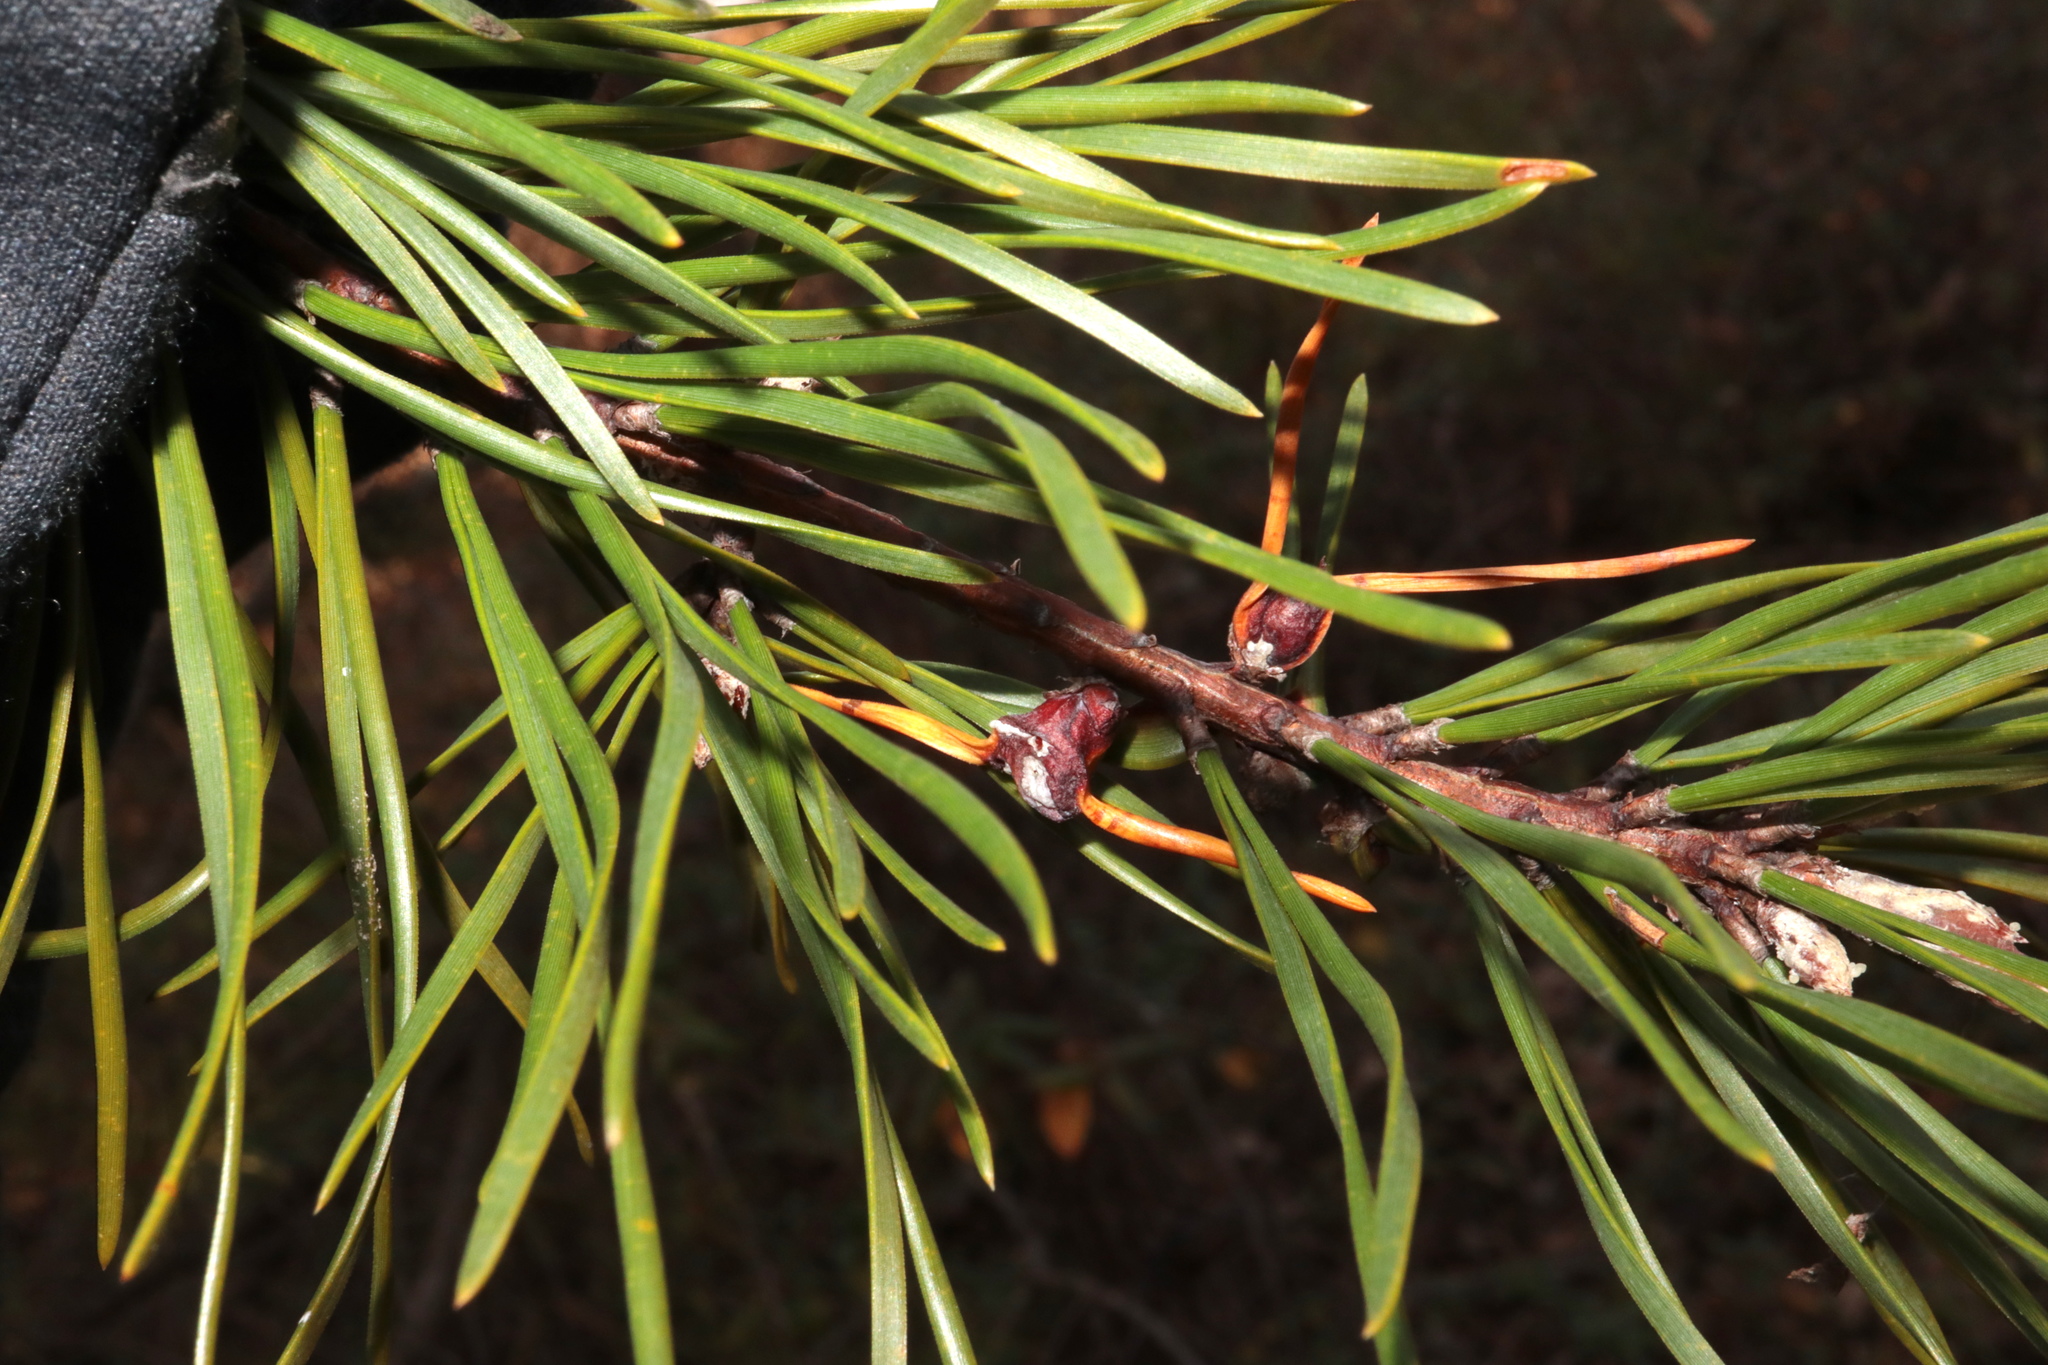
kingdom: Animalia
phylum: Arthropoda
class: Insecta
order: Diptera
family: Cecidomyiidae
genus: Thecodiplosis
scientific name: Thecodiplosis brachynteroides
